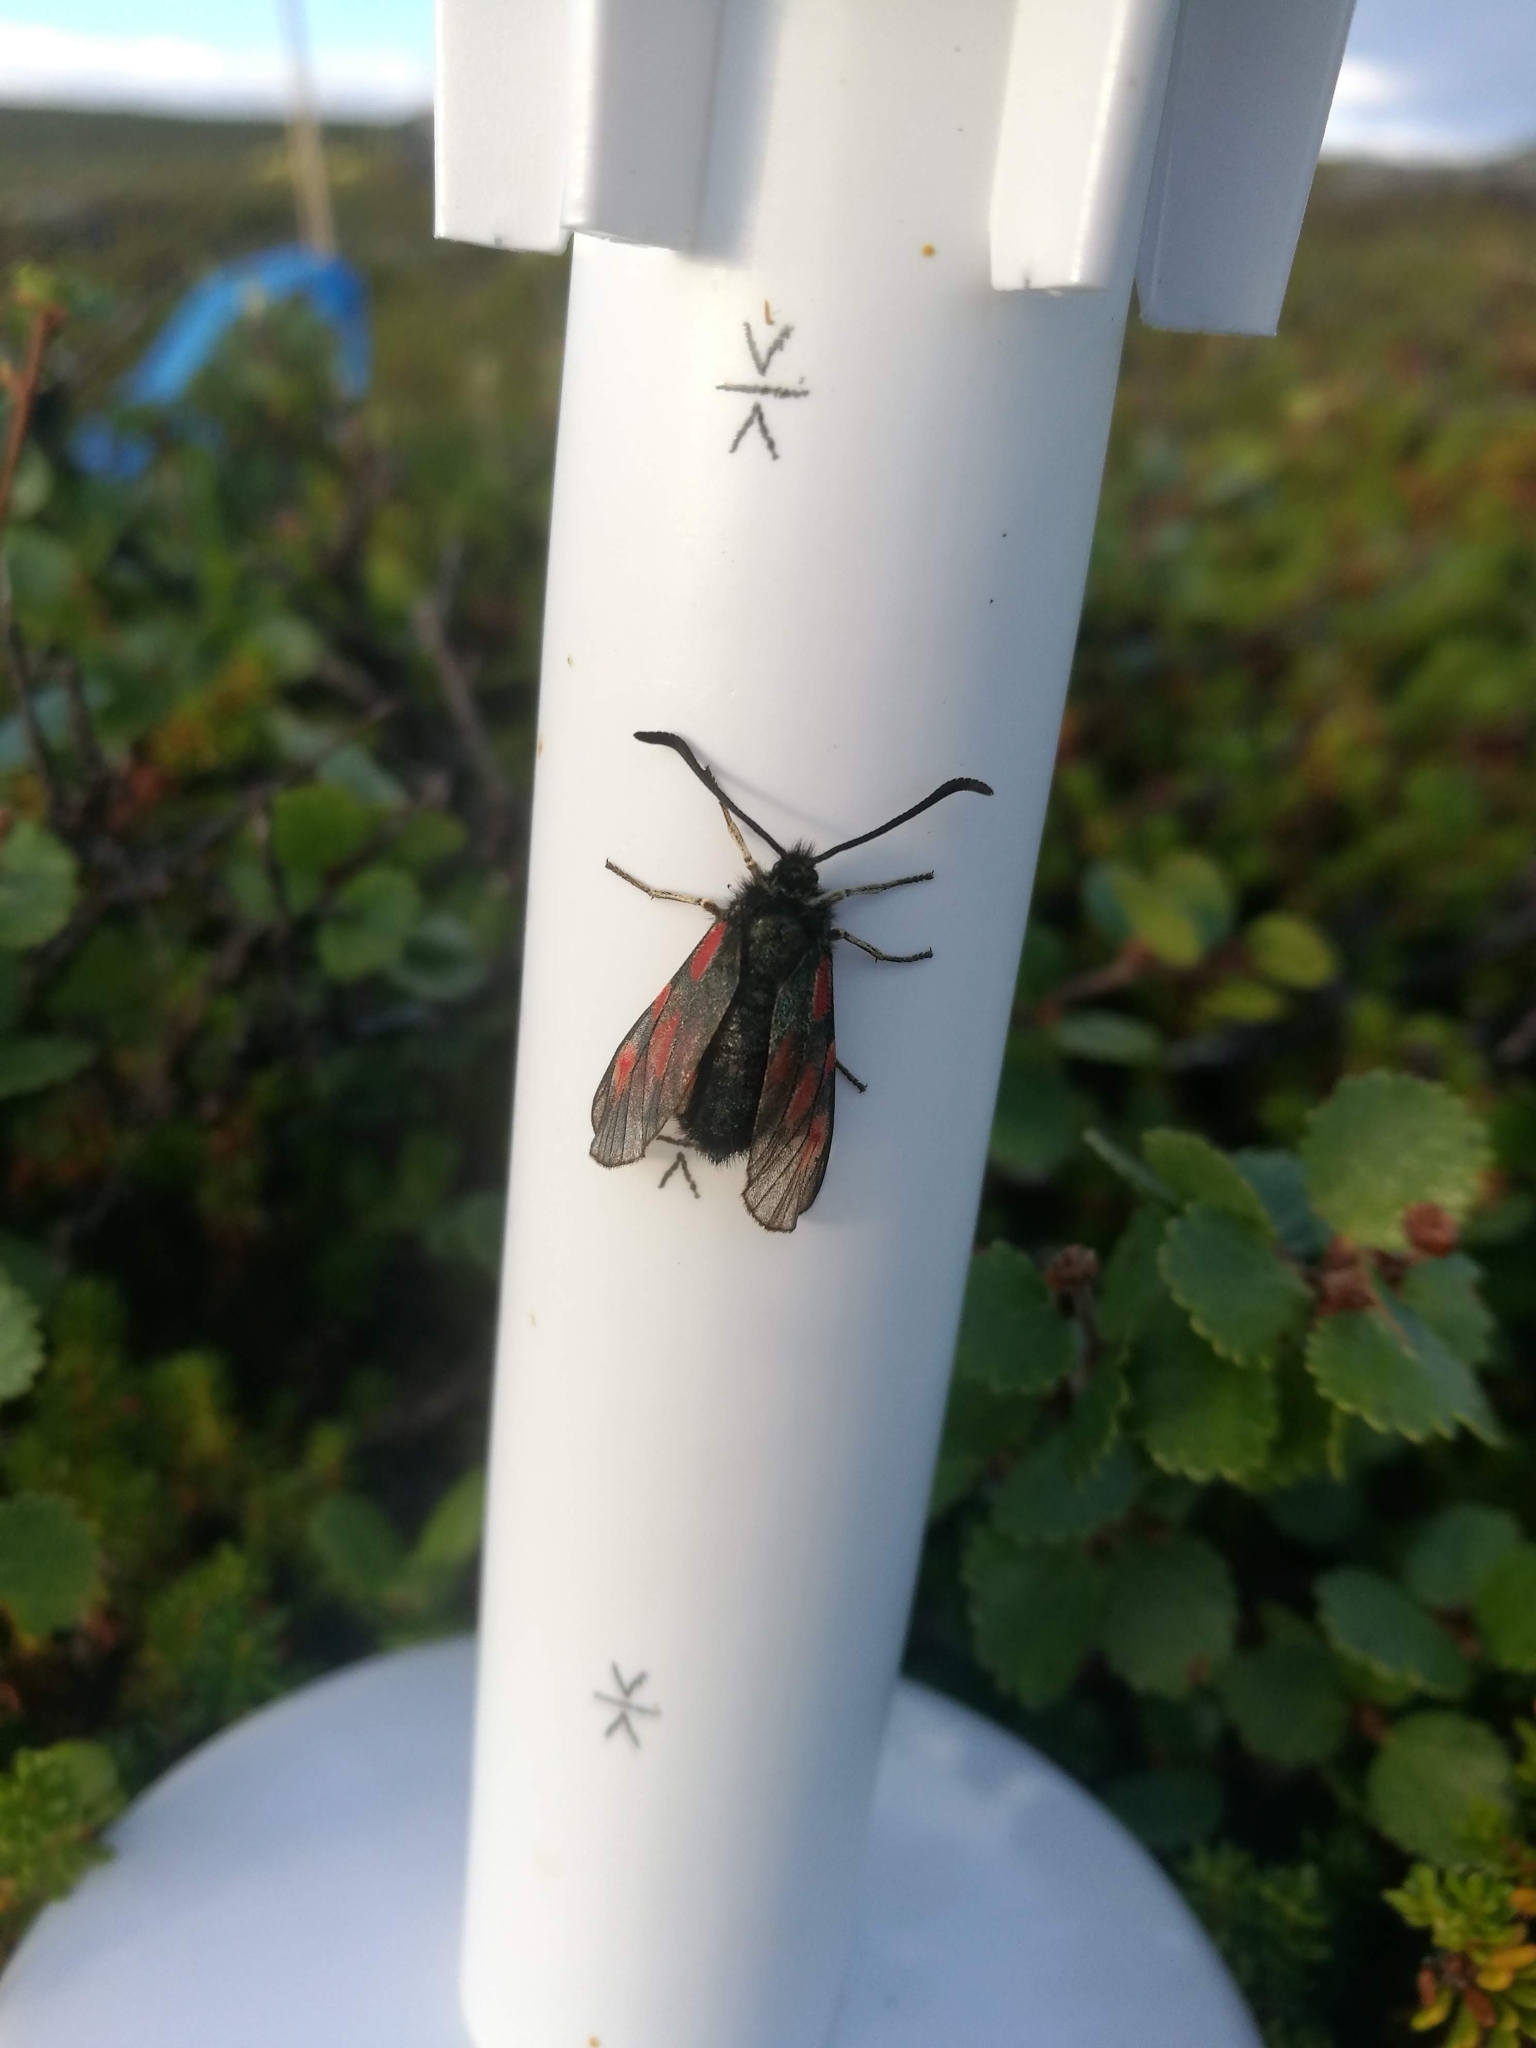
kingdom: Animalia
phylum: Arthropoda
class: Insecta
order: Lepidoptera
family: Zygaenidae
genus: Zygaena
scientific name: Zygaena exulans
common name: Scotch burnet
